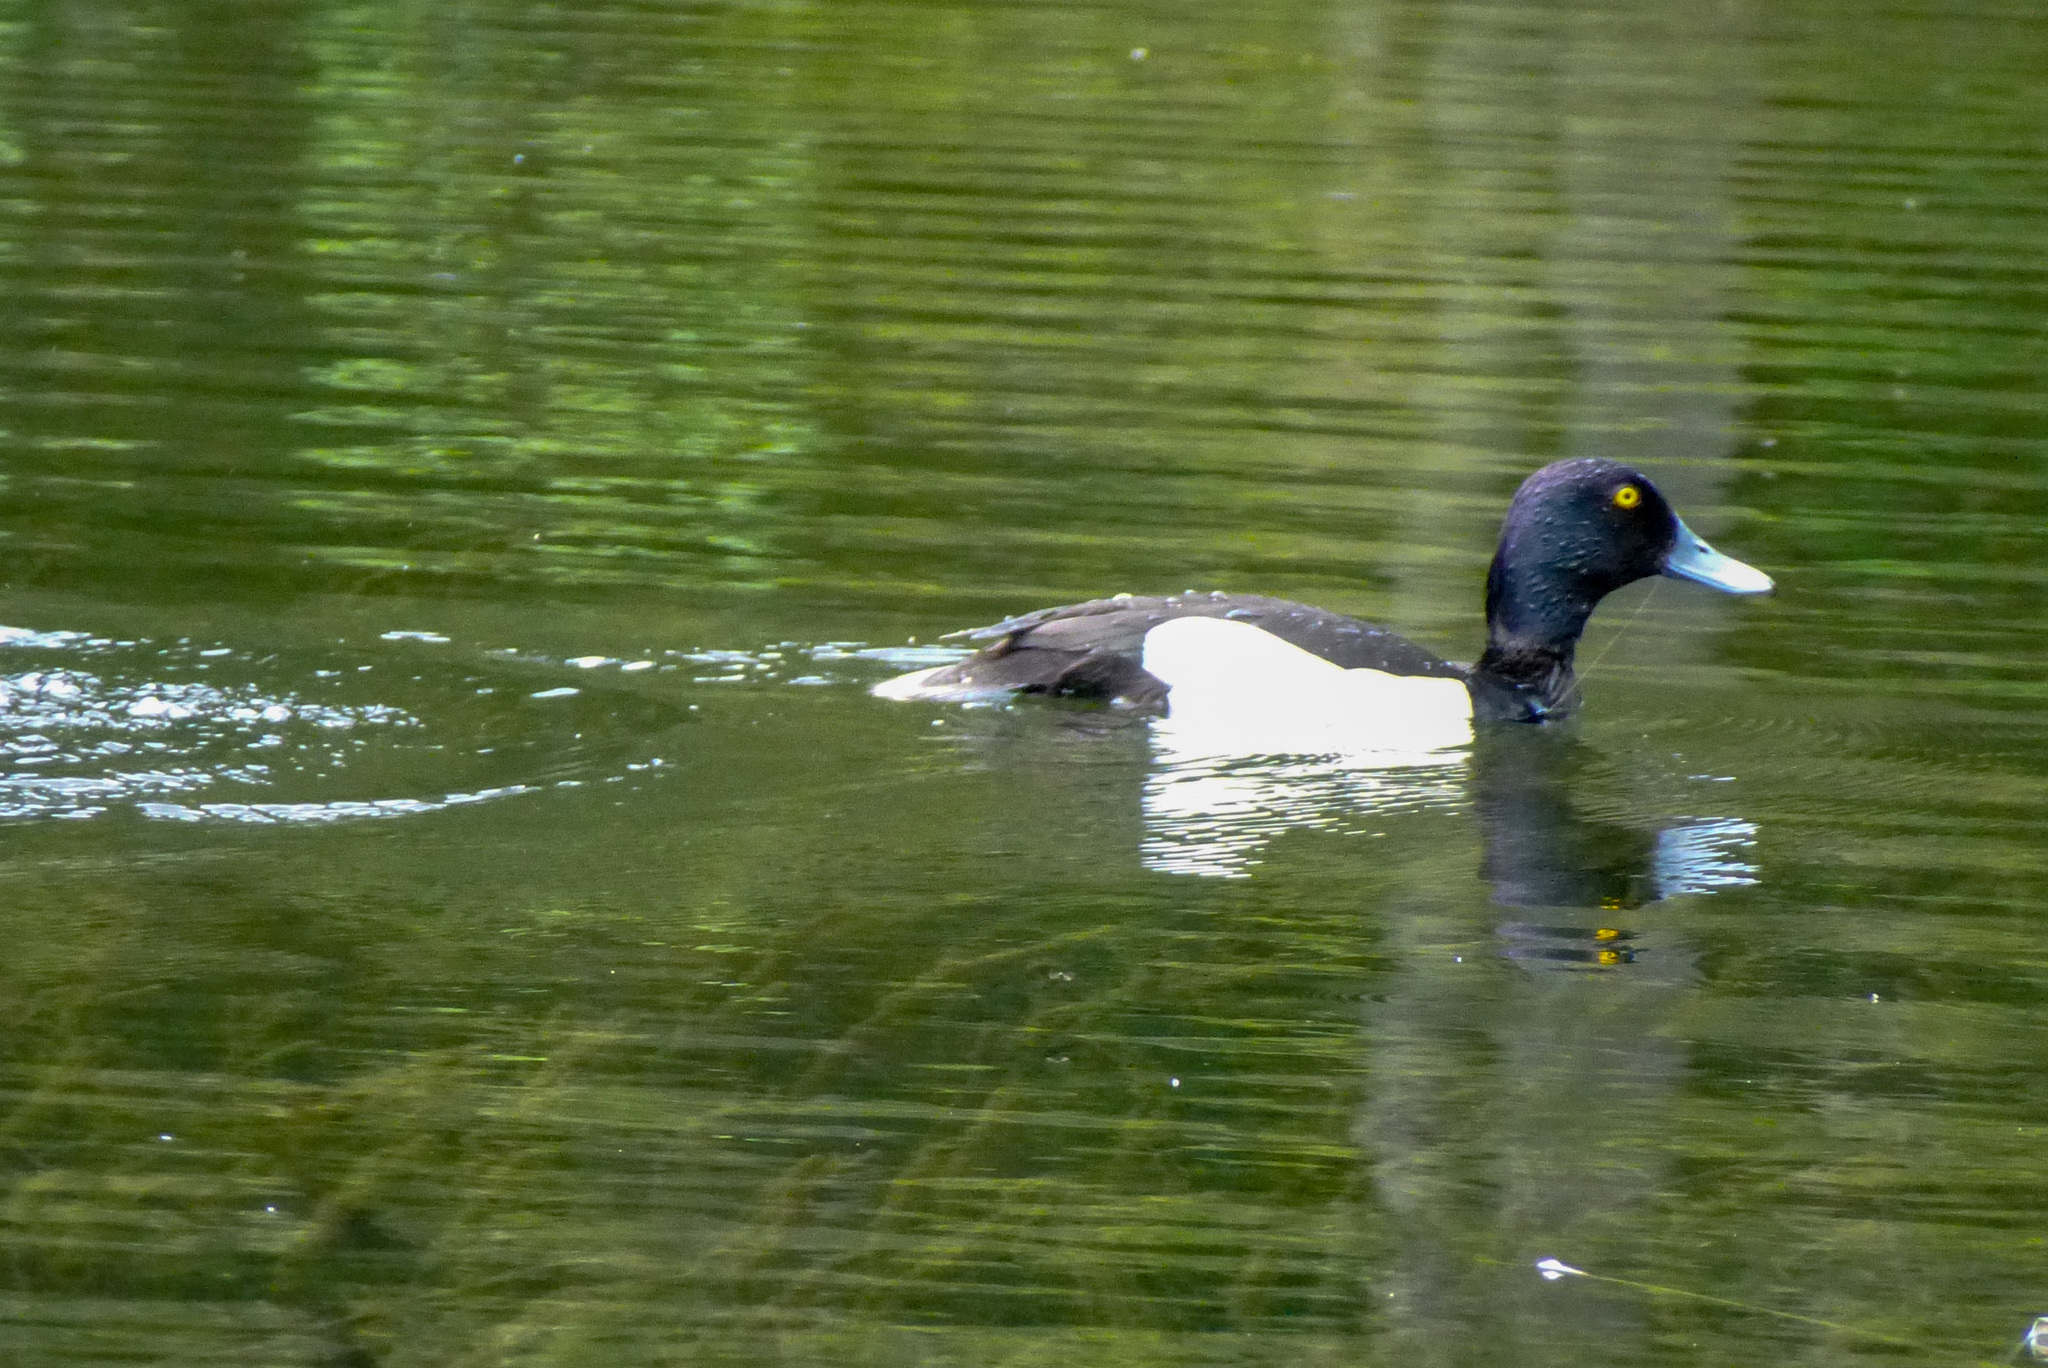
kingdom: Animalia
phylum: Chordata
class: Aves
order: Anseriformes
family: Anatidae
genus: Aythya
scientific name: Aythya fuligula
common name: Tufted duck
